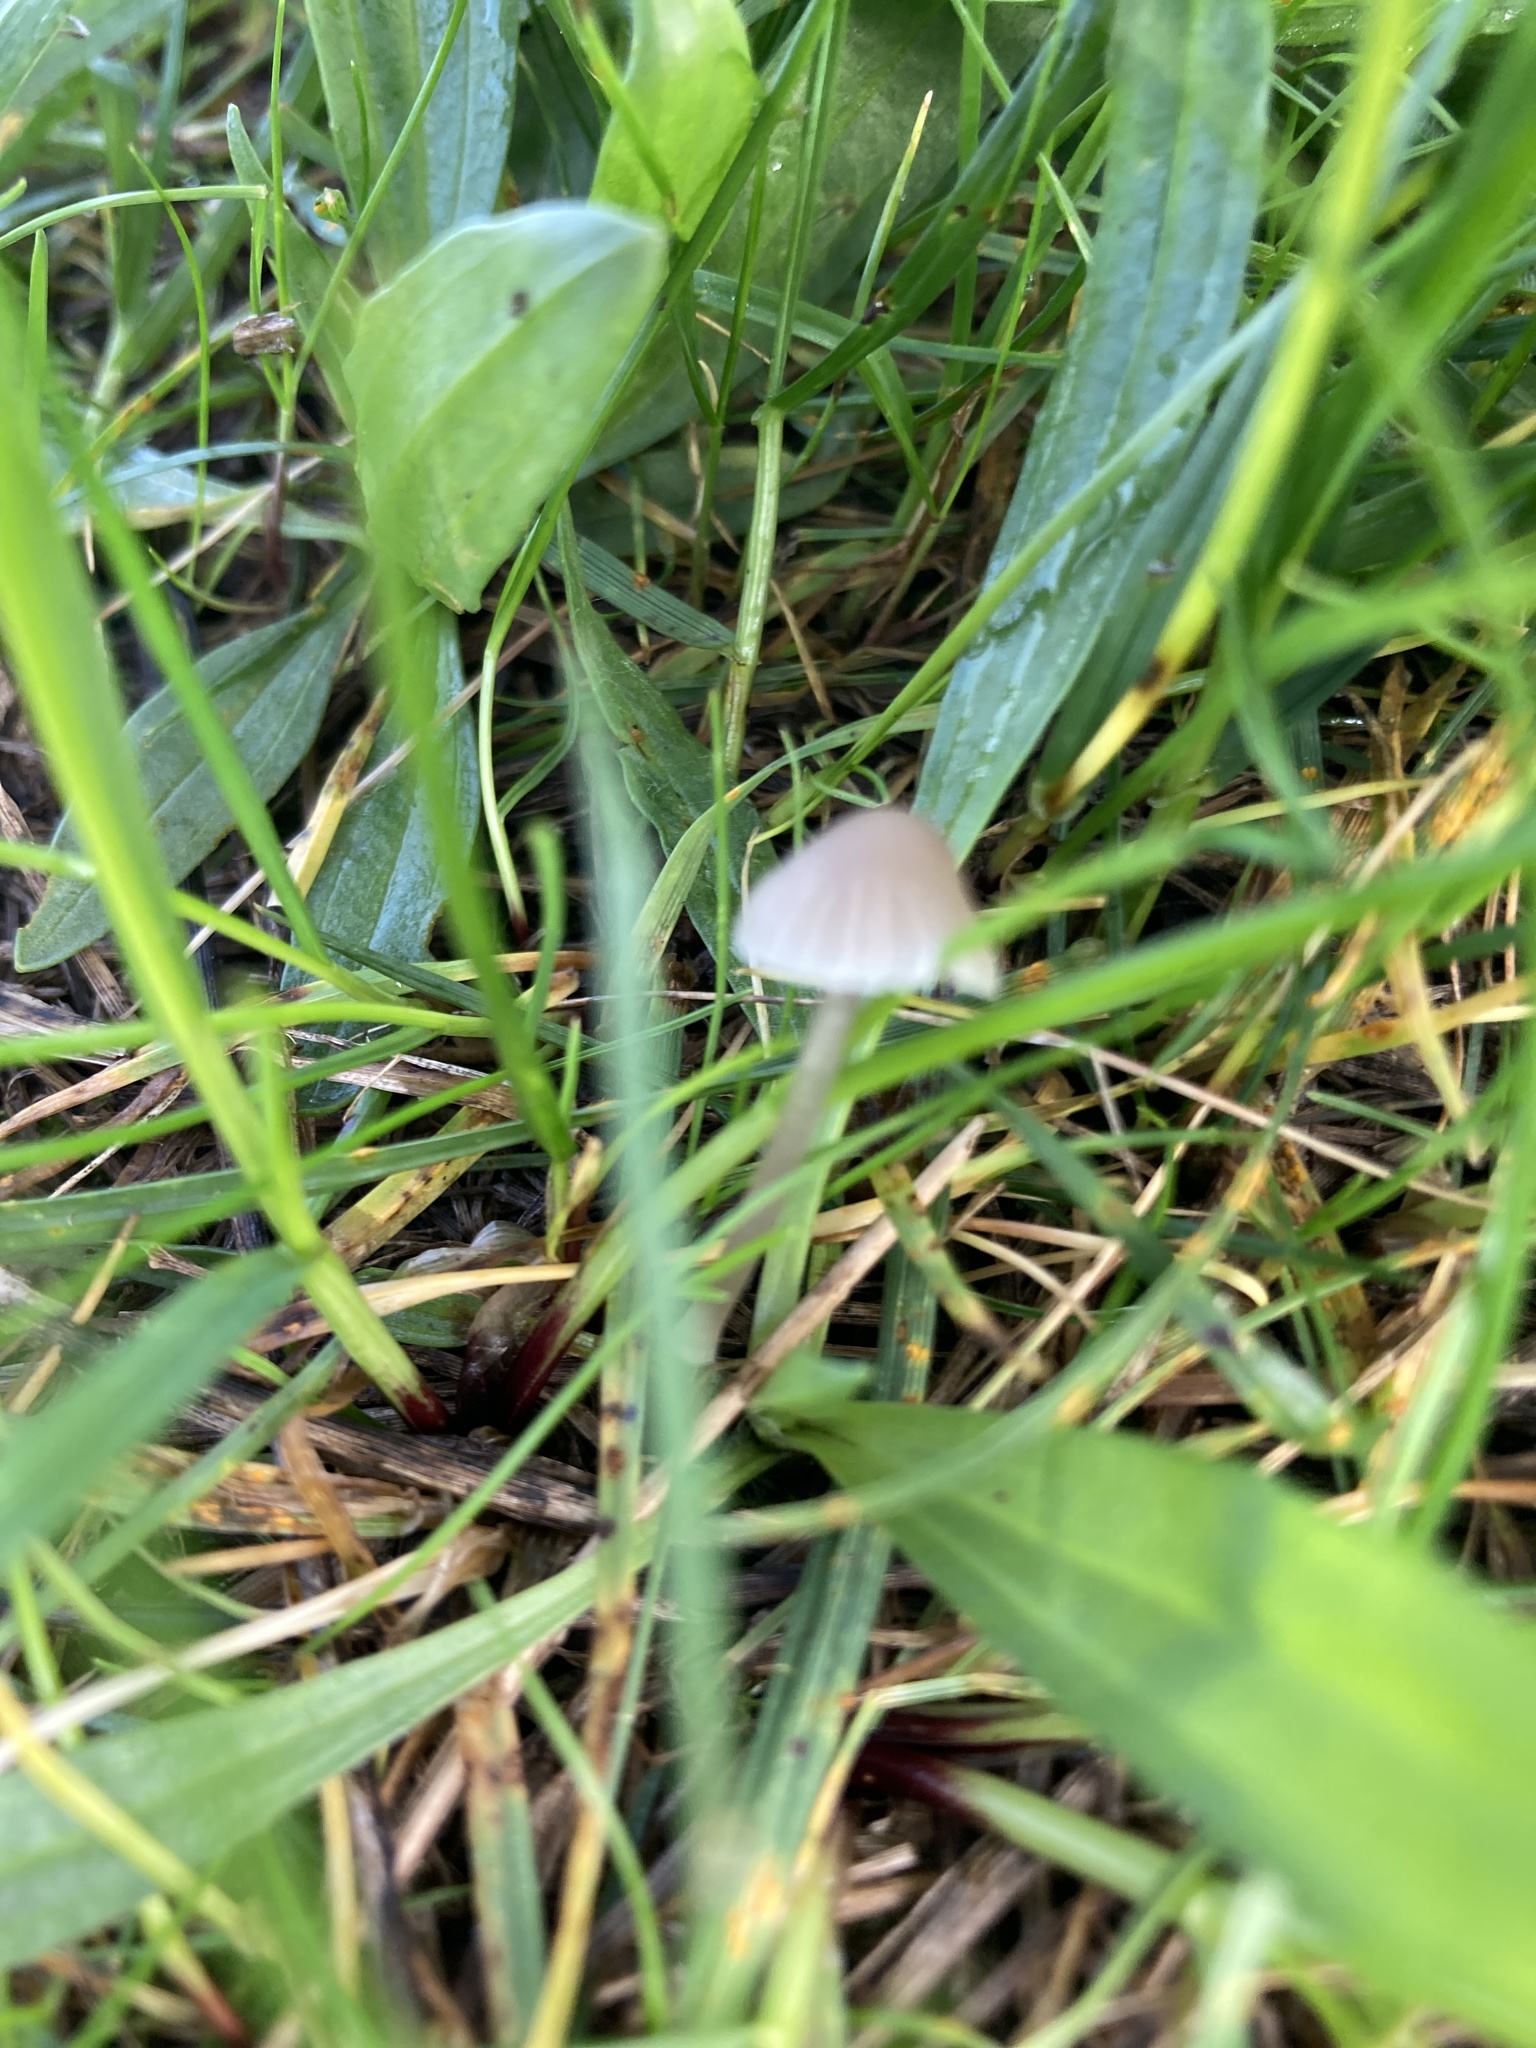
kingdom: Fungi
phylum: Basidiomycota
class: Agaricomycetes
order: Agaricales
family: Psathyrellaceae
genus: Parasola
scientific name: Parasola plicatilis
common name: Pleated inkcap
